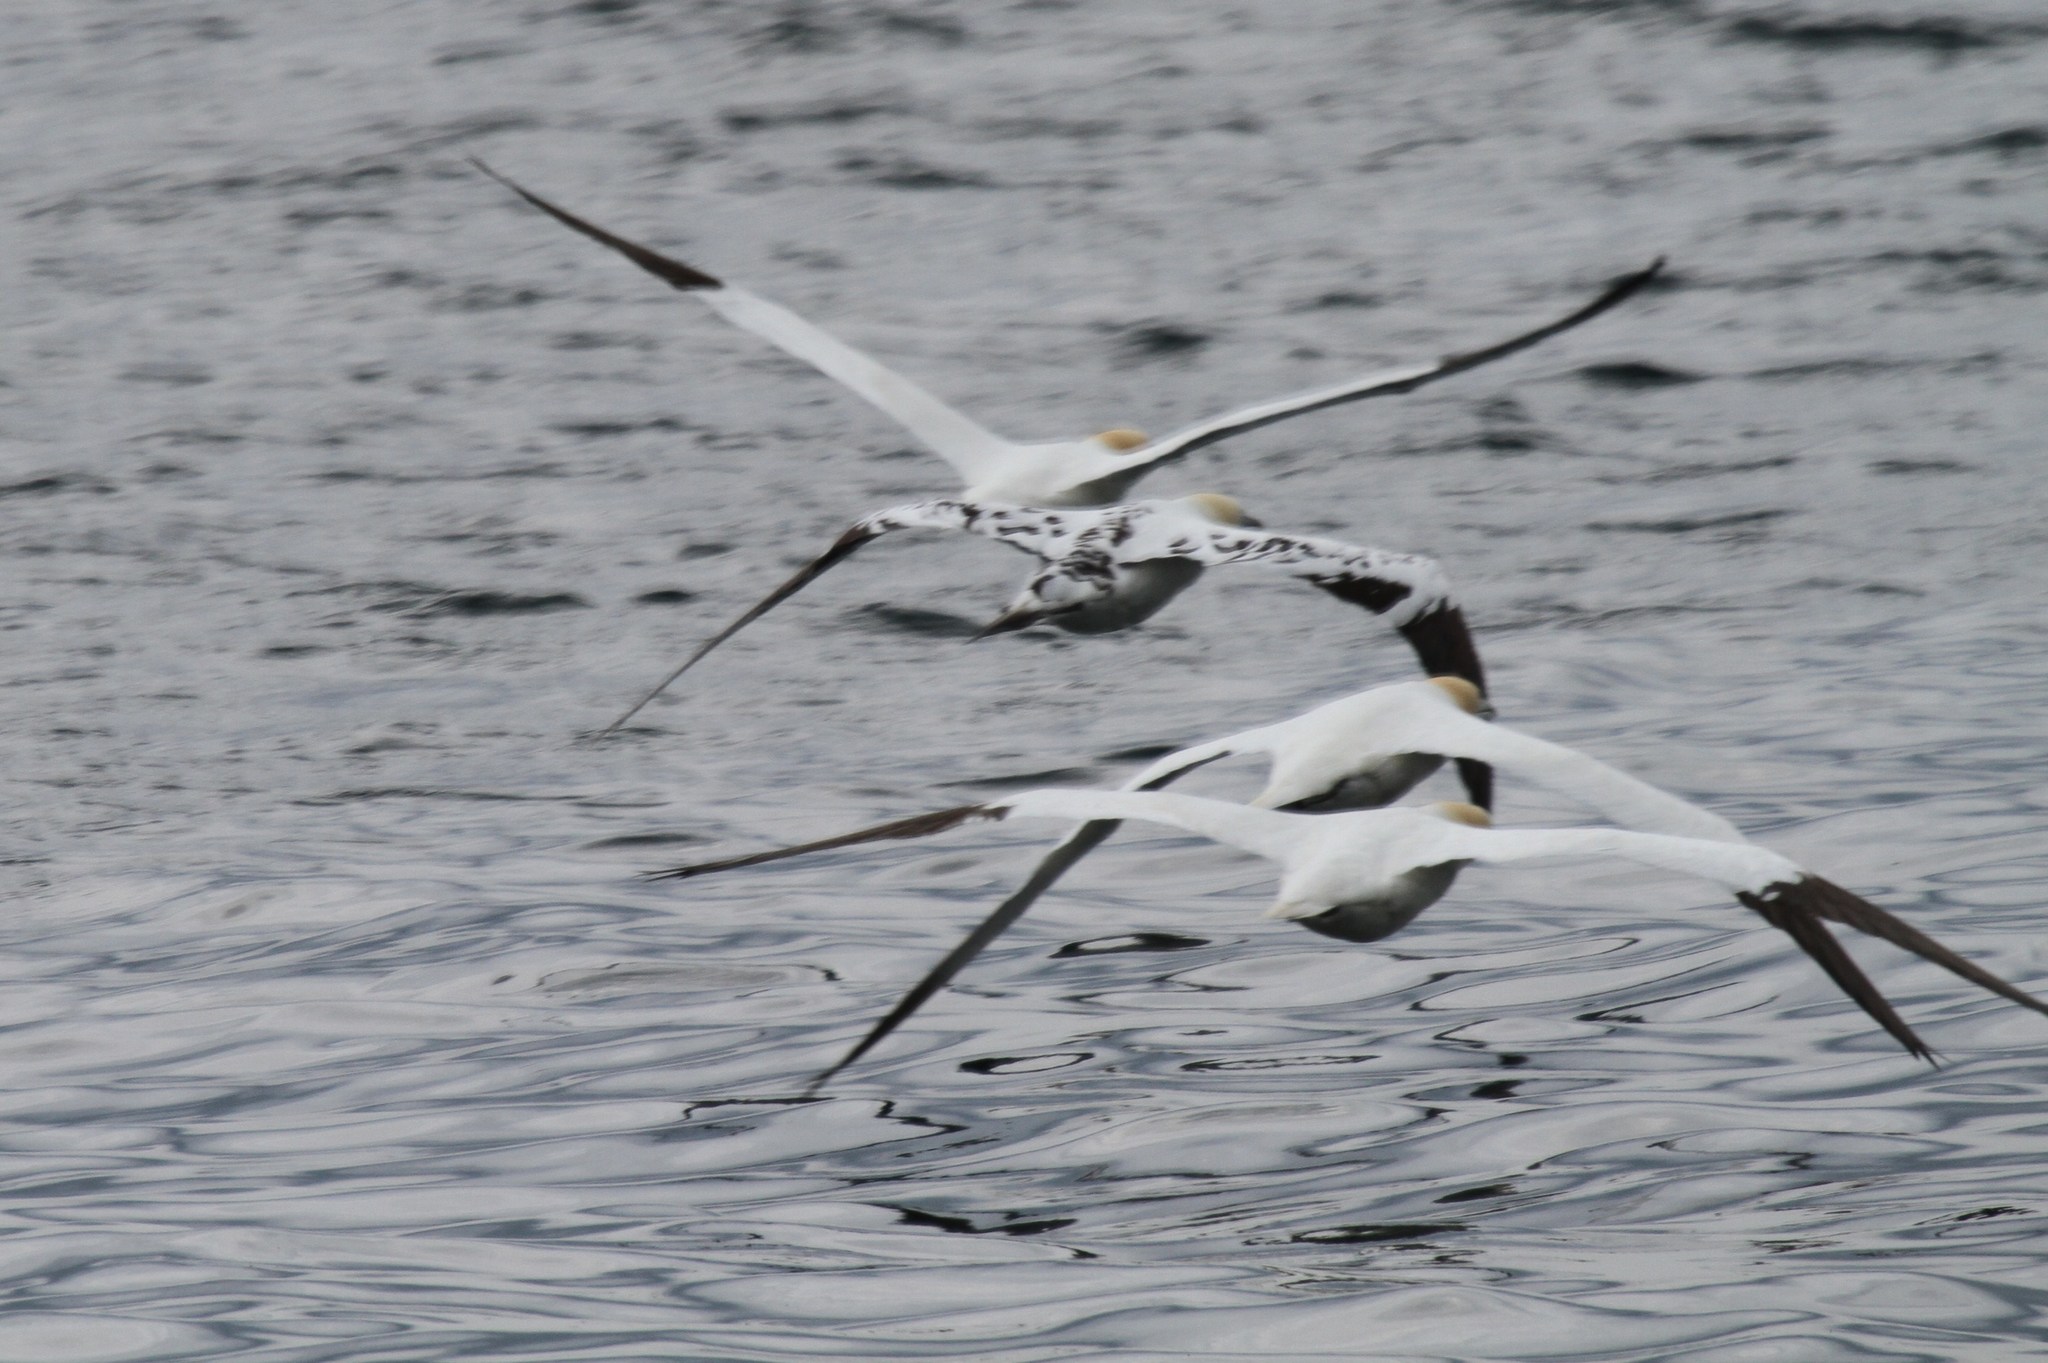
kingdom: Animalia
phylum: Chordata
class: Aves
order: Suliformes
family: Sulidae
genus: Morus
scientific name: Morus bassanus
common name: Northern gannet
